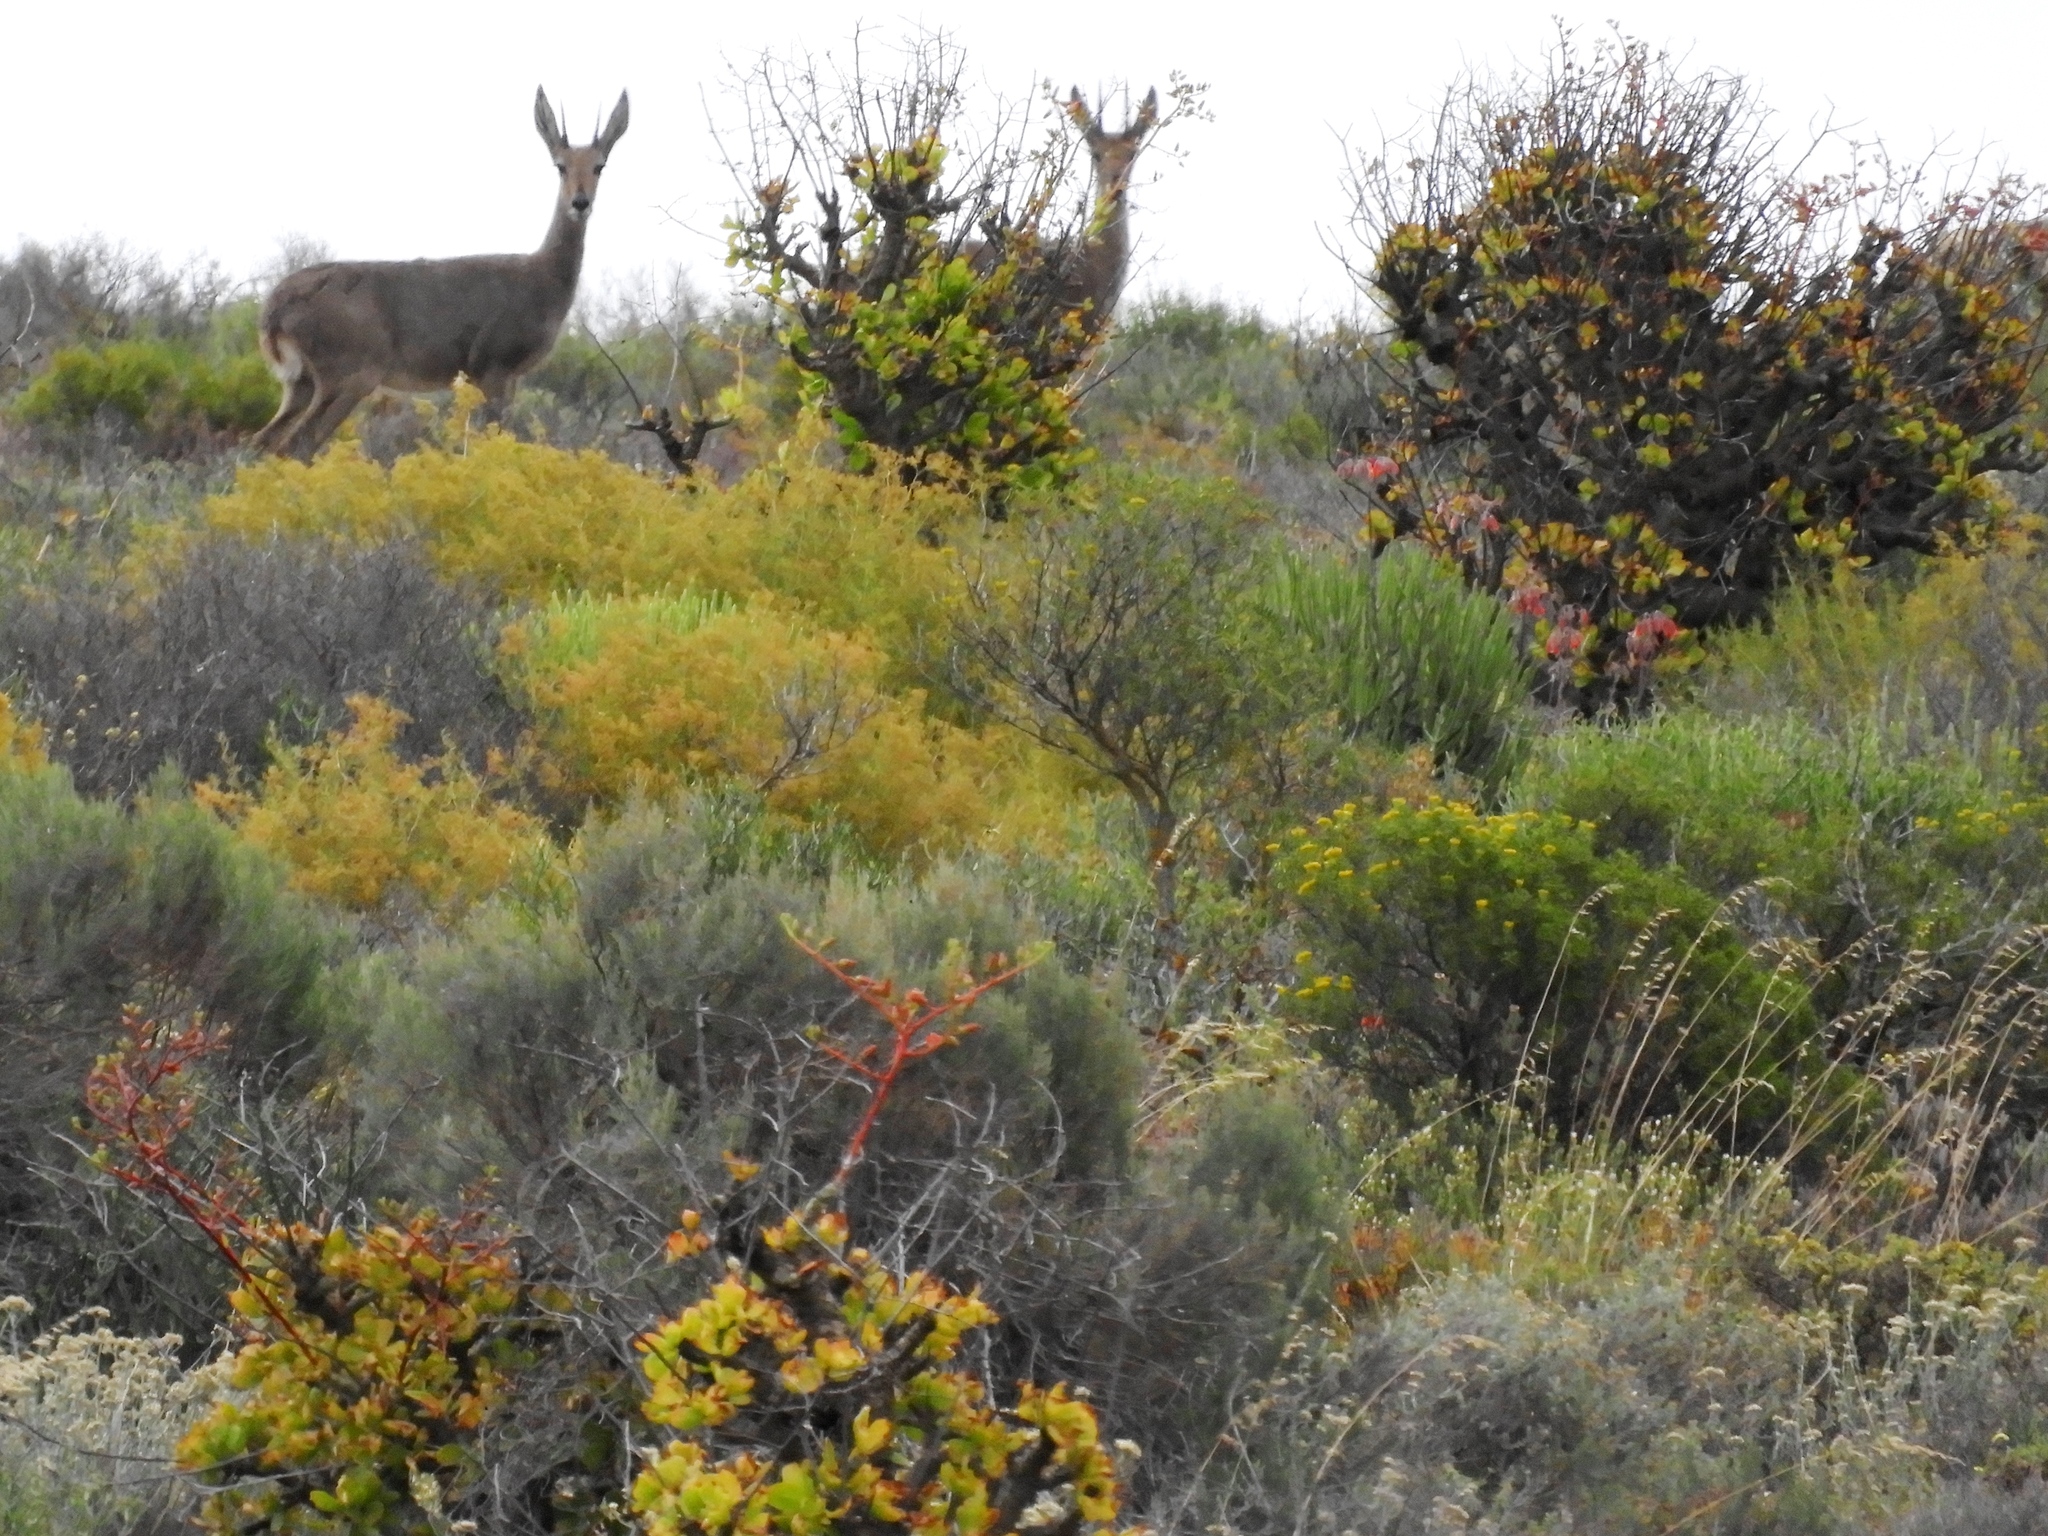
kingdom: Animalia
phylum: Chordata
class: Mammalia
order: Artiodactyla
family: Bovidae
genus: Pelea
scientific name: Pelea capreolus
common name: Common rhebok
